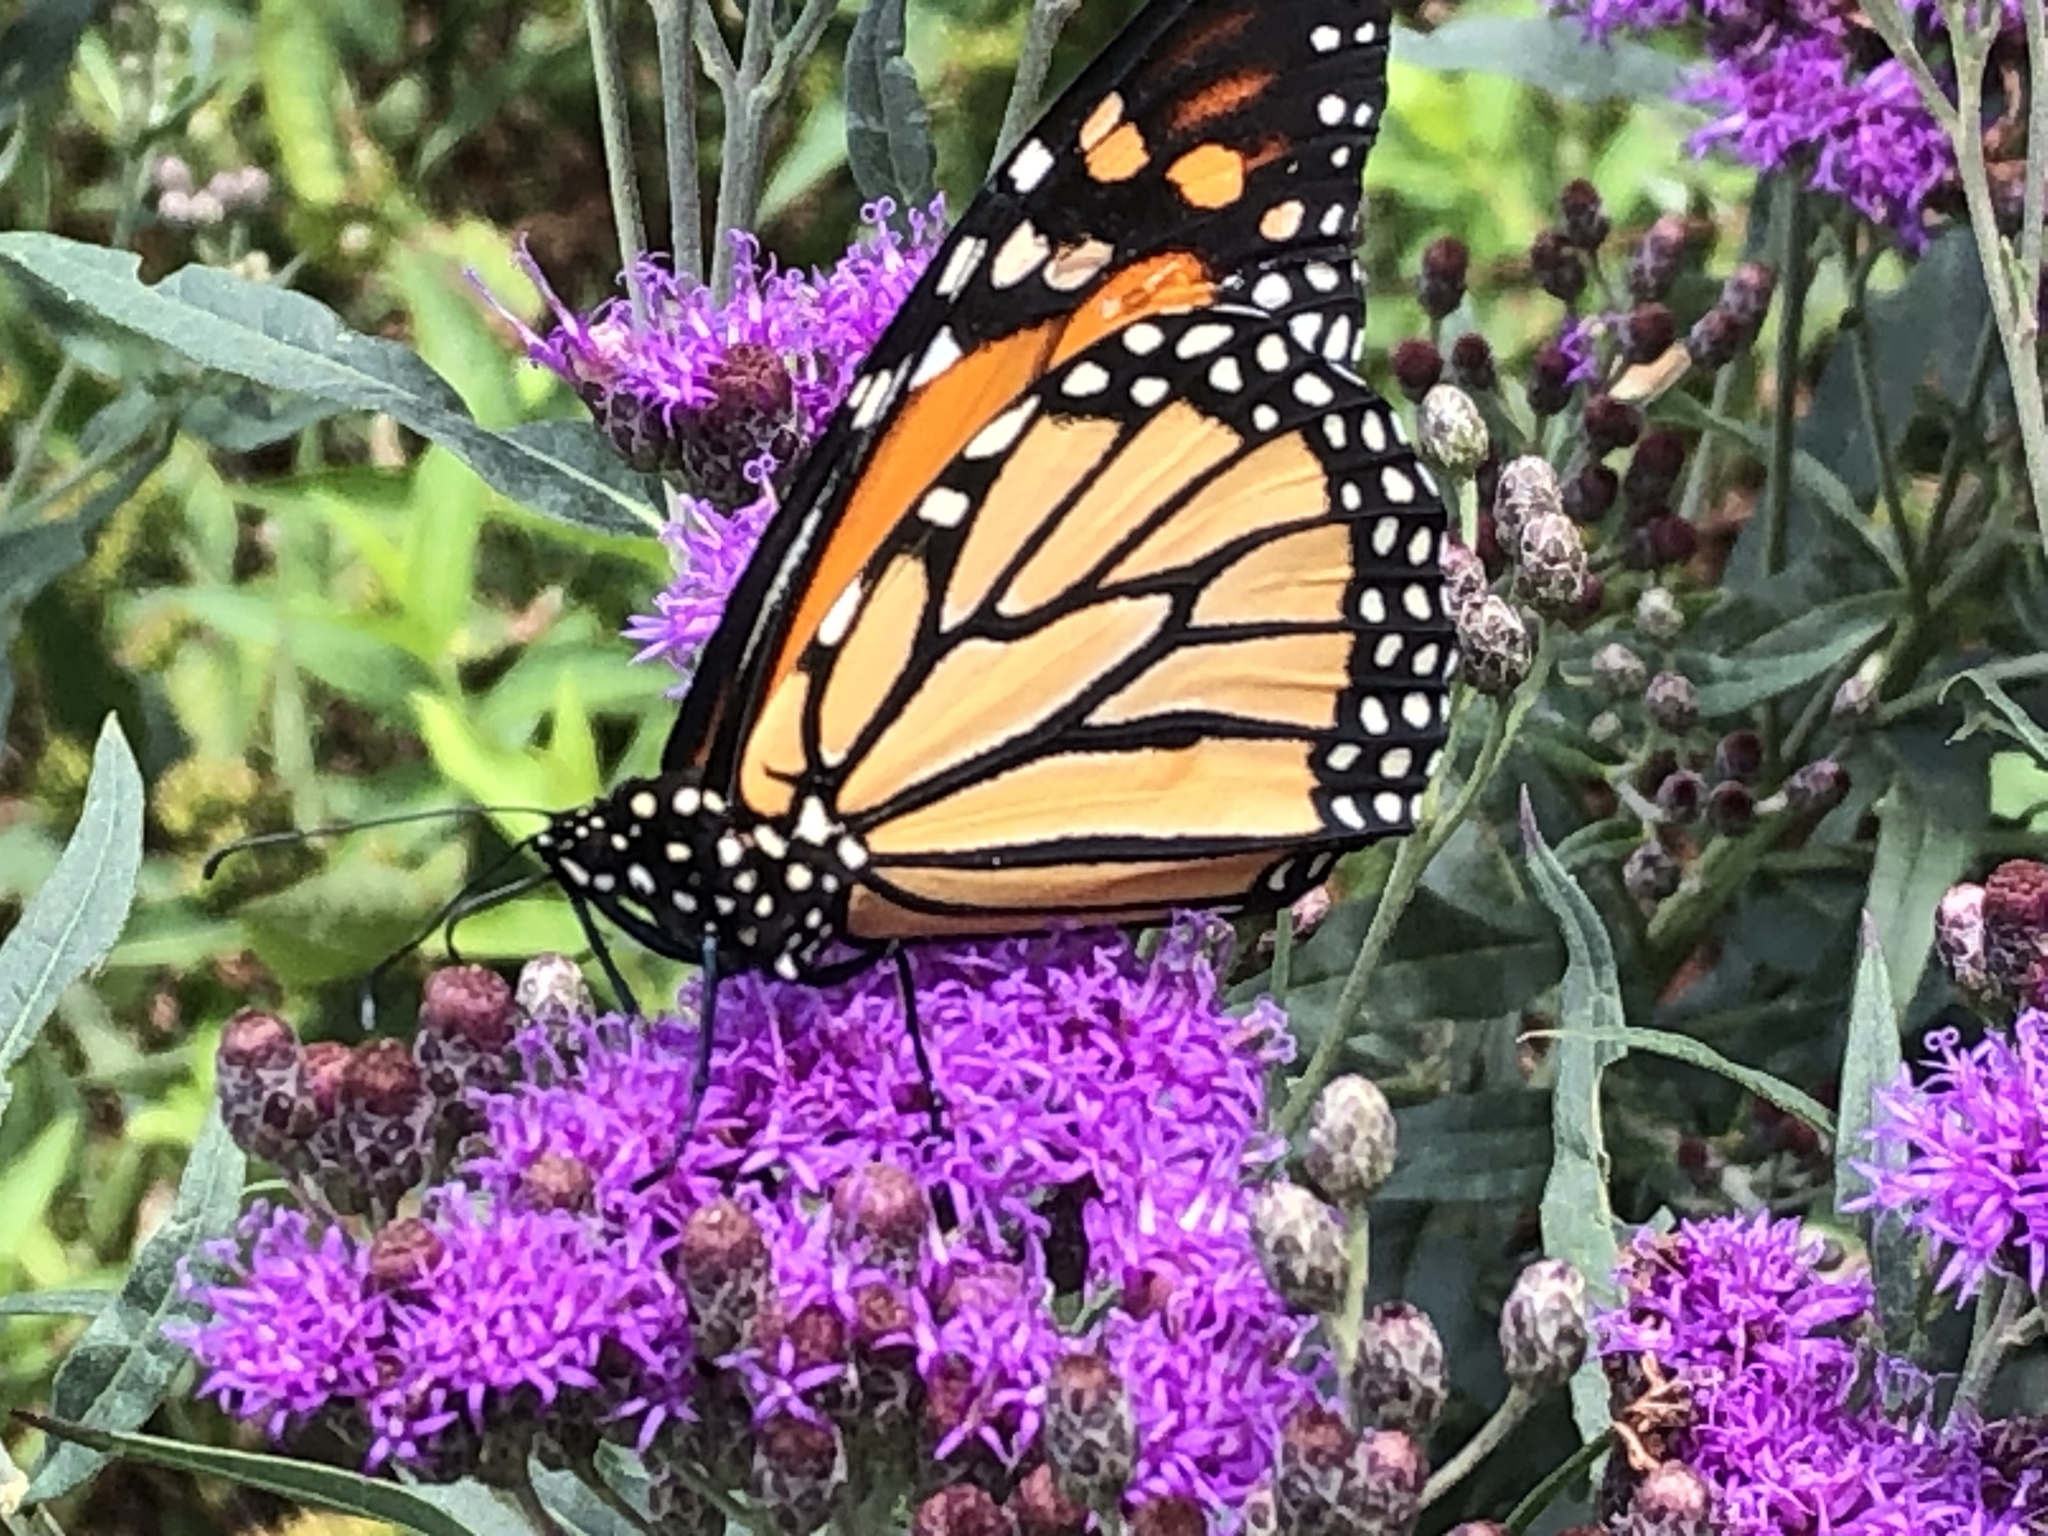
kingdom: Animalia
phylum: Arthropoda
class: Insecta
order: Lepidoptera
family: Nymphalidae
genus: Danaus
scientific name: Danaus plexippus
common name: Monarch
